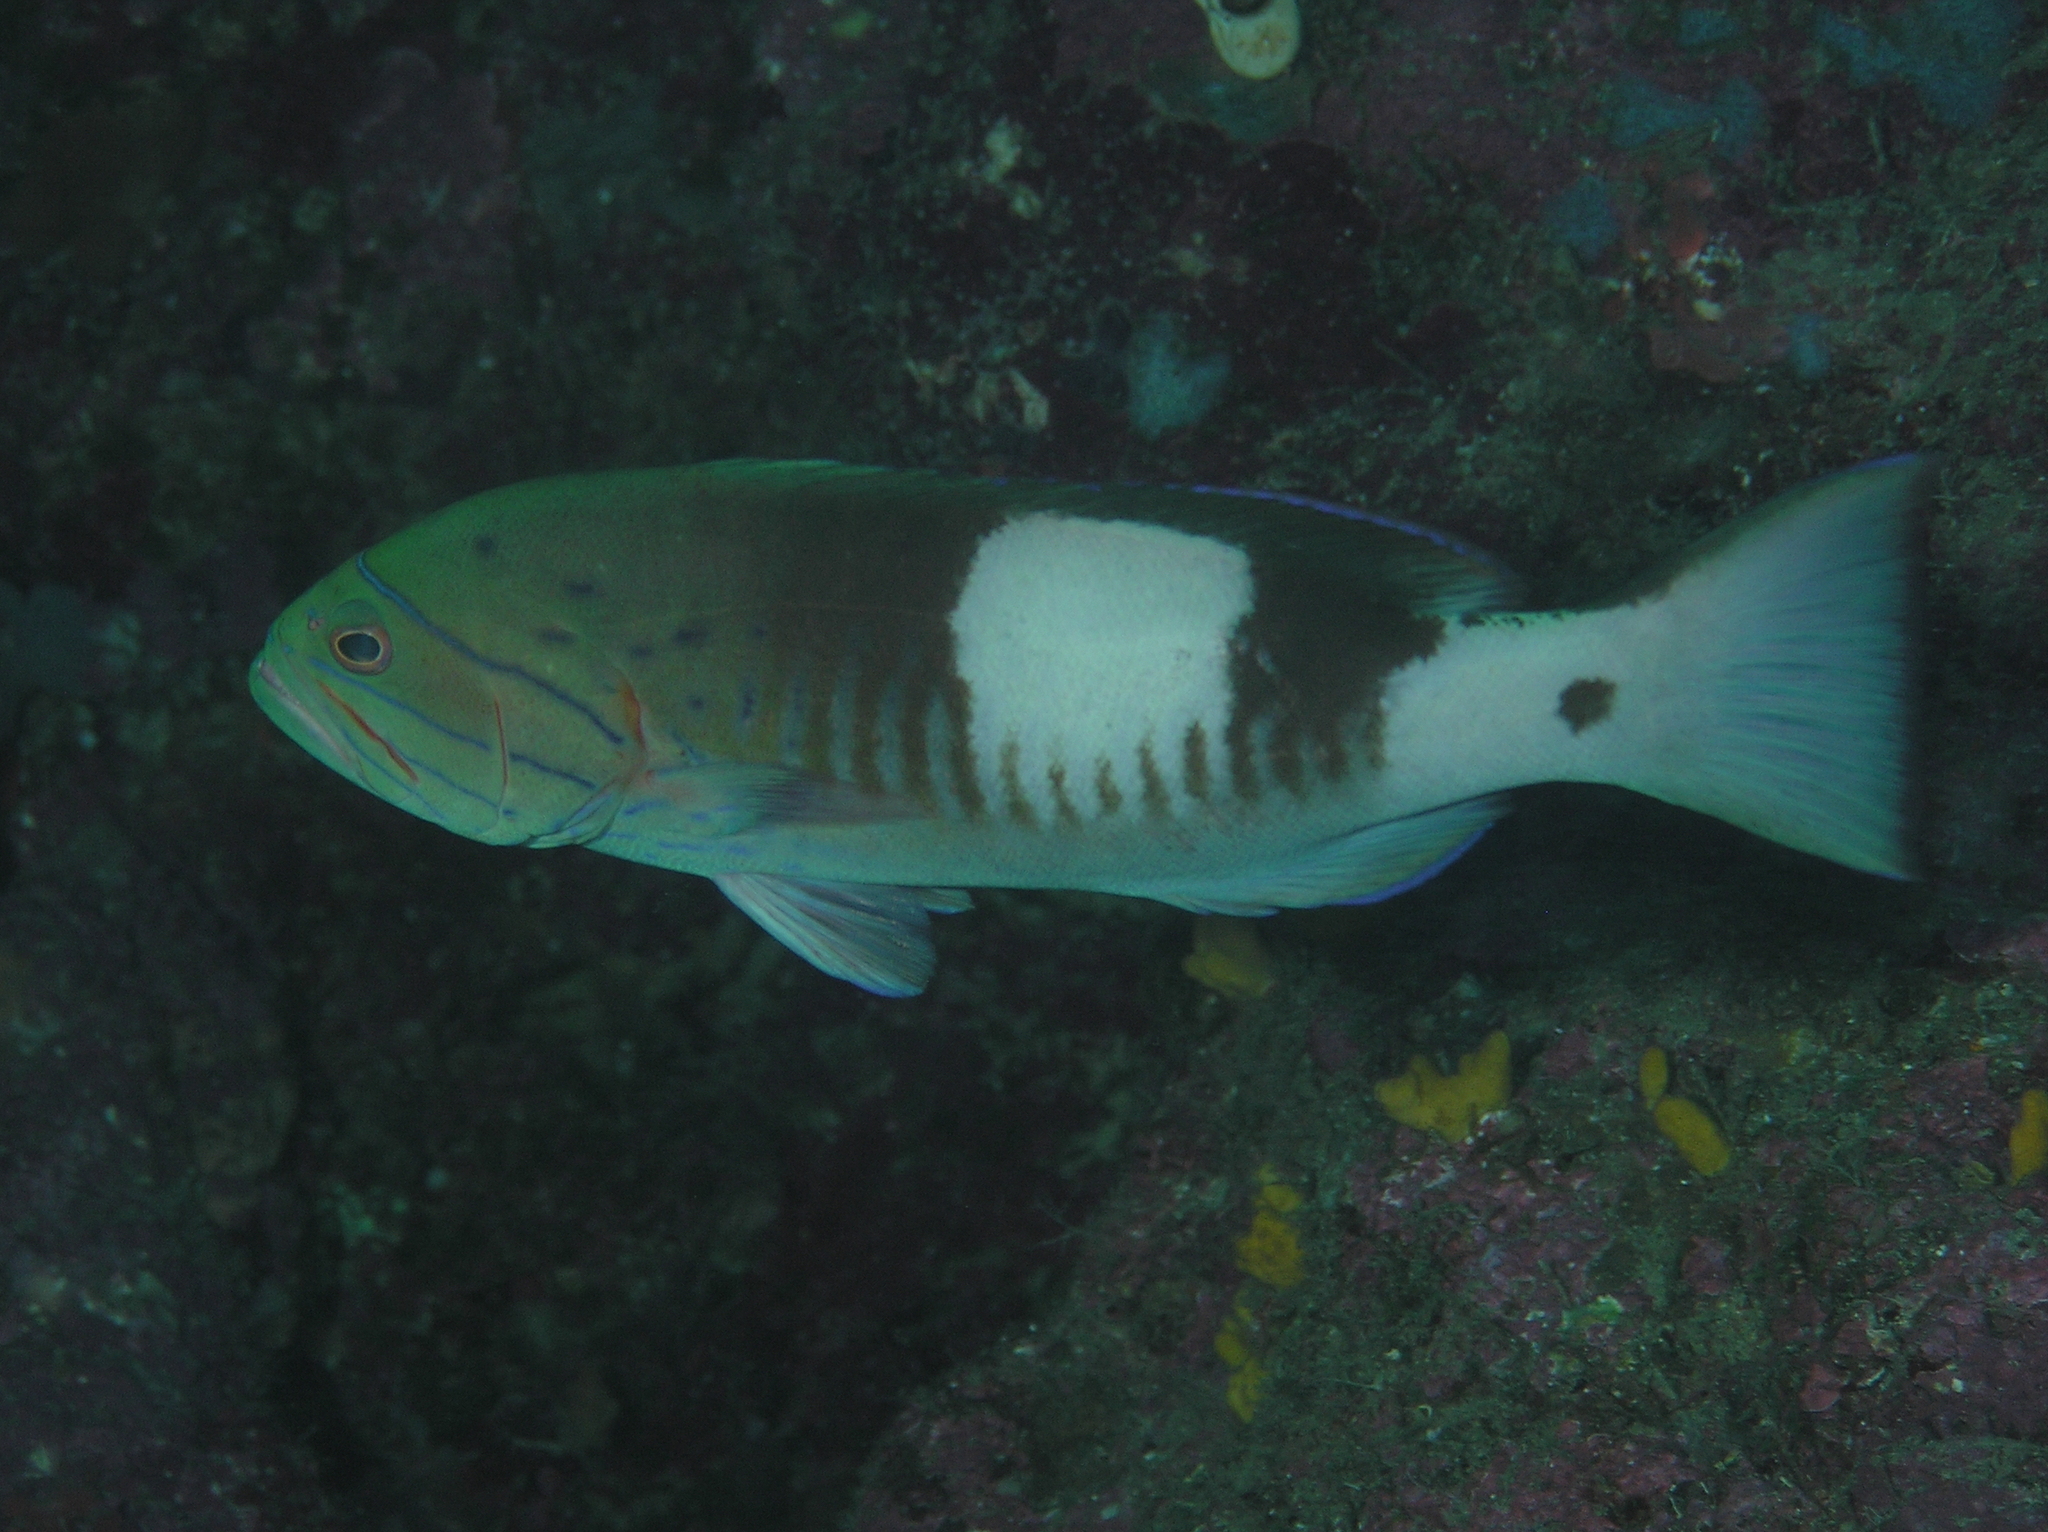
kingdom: Animalia
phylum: Chordata
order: Perciformes
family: Serranidae
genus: Gracila
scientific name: Gracila albomarginata
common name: White-margined grouper
